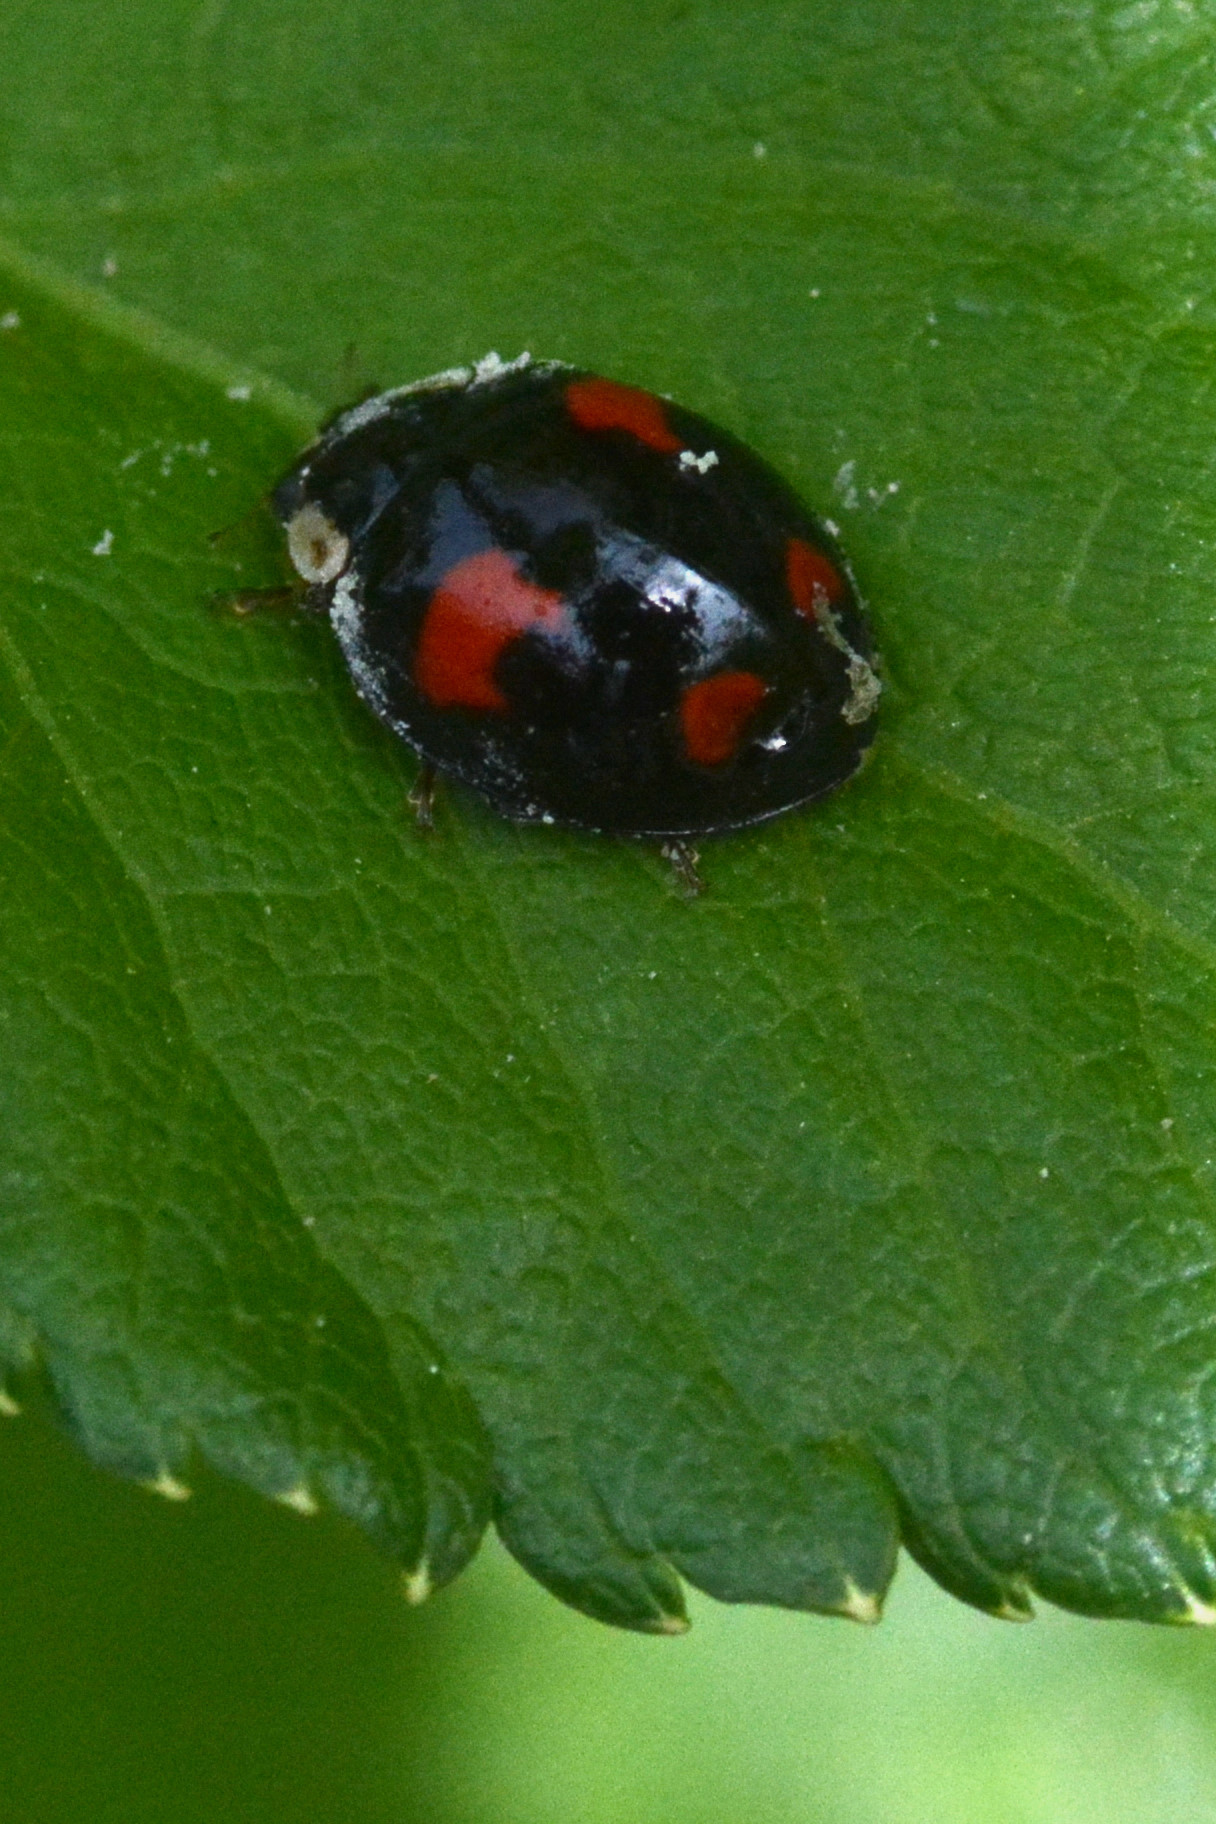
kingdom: Animalia
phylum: Arthropoda
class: Insecta
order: Coleoptera
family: Coccinellidae
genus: Harmonia
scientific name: Harmonia axyridis
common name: Harlequin ladybird
